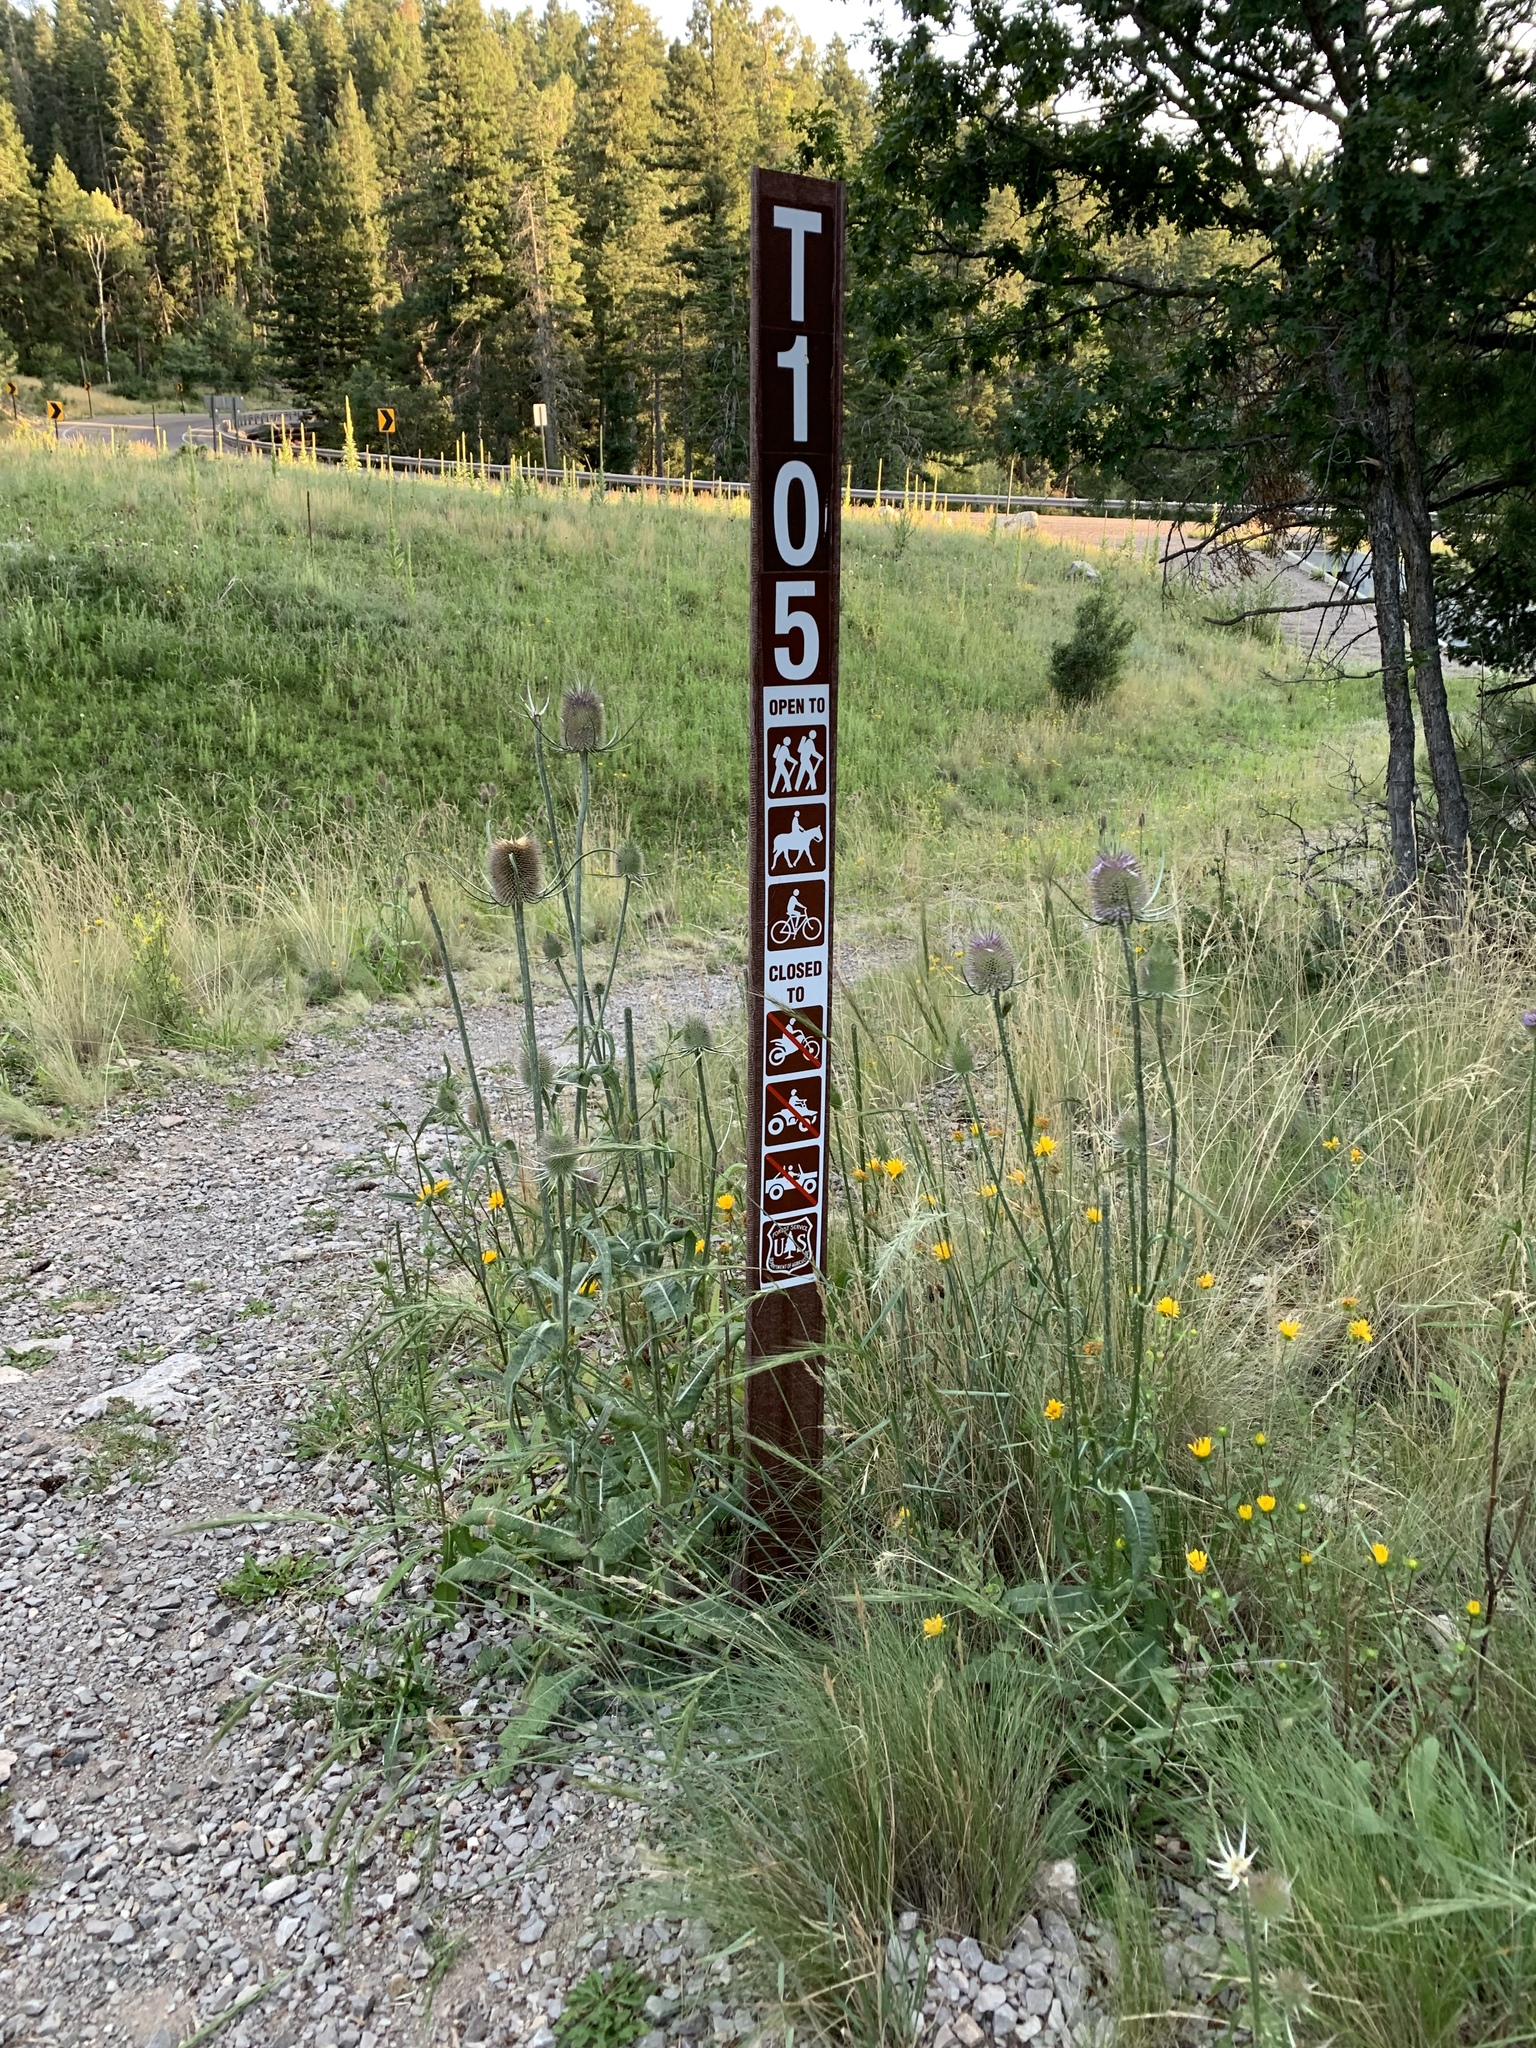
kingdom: Plantae
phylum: Tracheophyta
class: Magnoliopsida
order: Dipsacales
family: Caprifoliaceae
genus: Dipsacus
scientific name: Dipsacus fullonum
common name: Teasel
